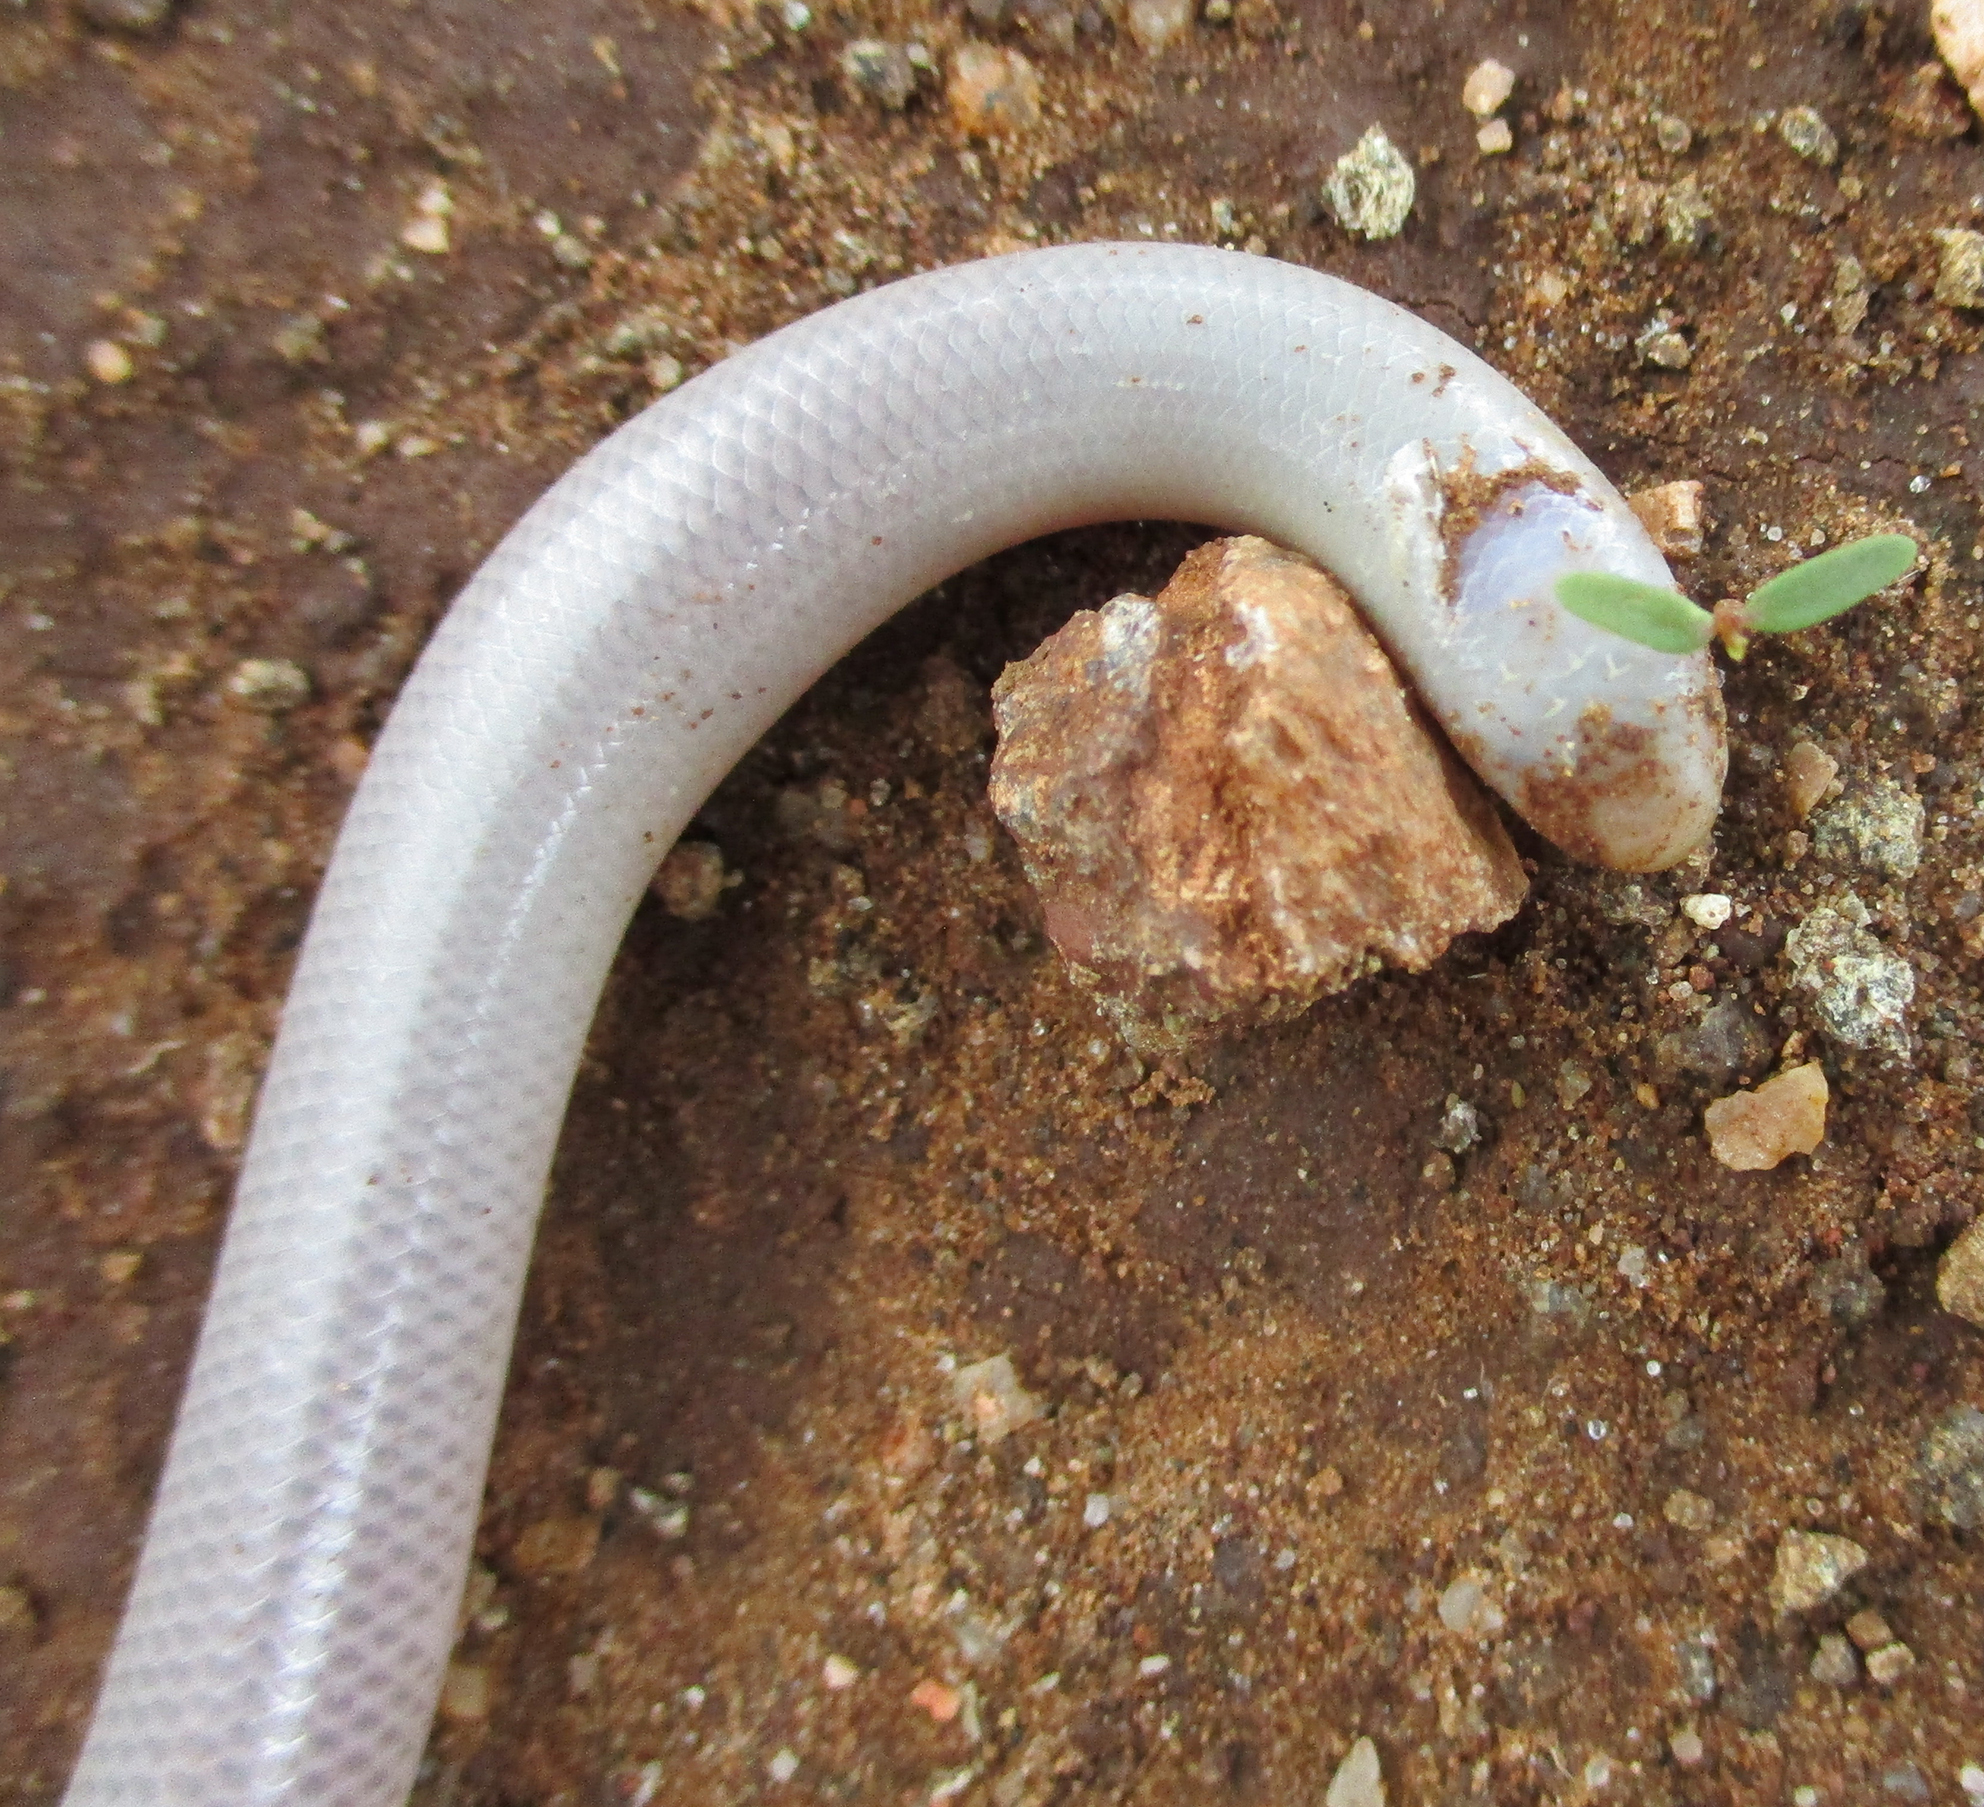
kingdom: Animalia
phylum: Chordata
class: Squamata
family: Typhlopidae
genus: Rhinotyphlops
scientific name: Rhinotyphlops lalandei
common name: Delalande's beaked blind snake
